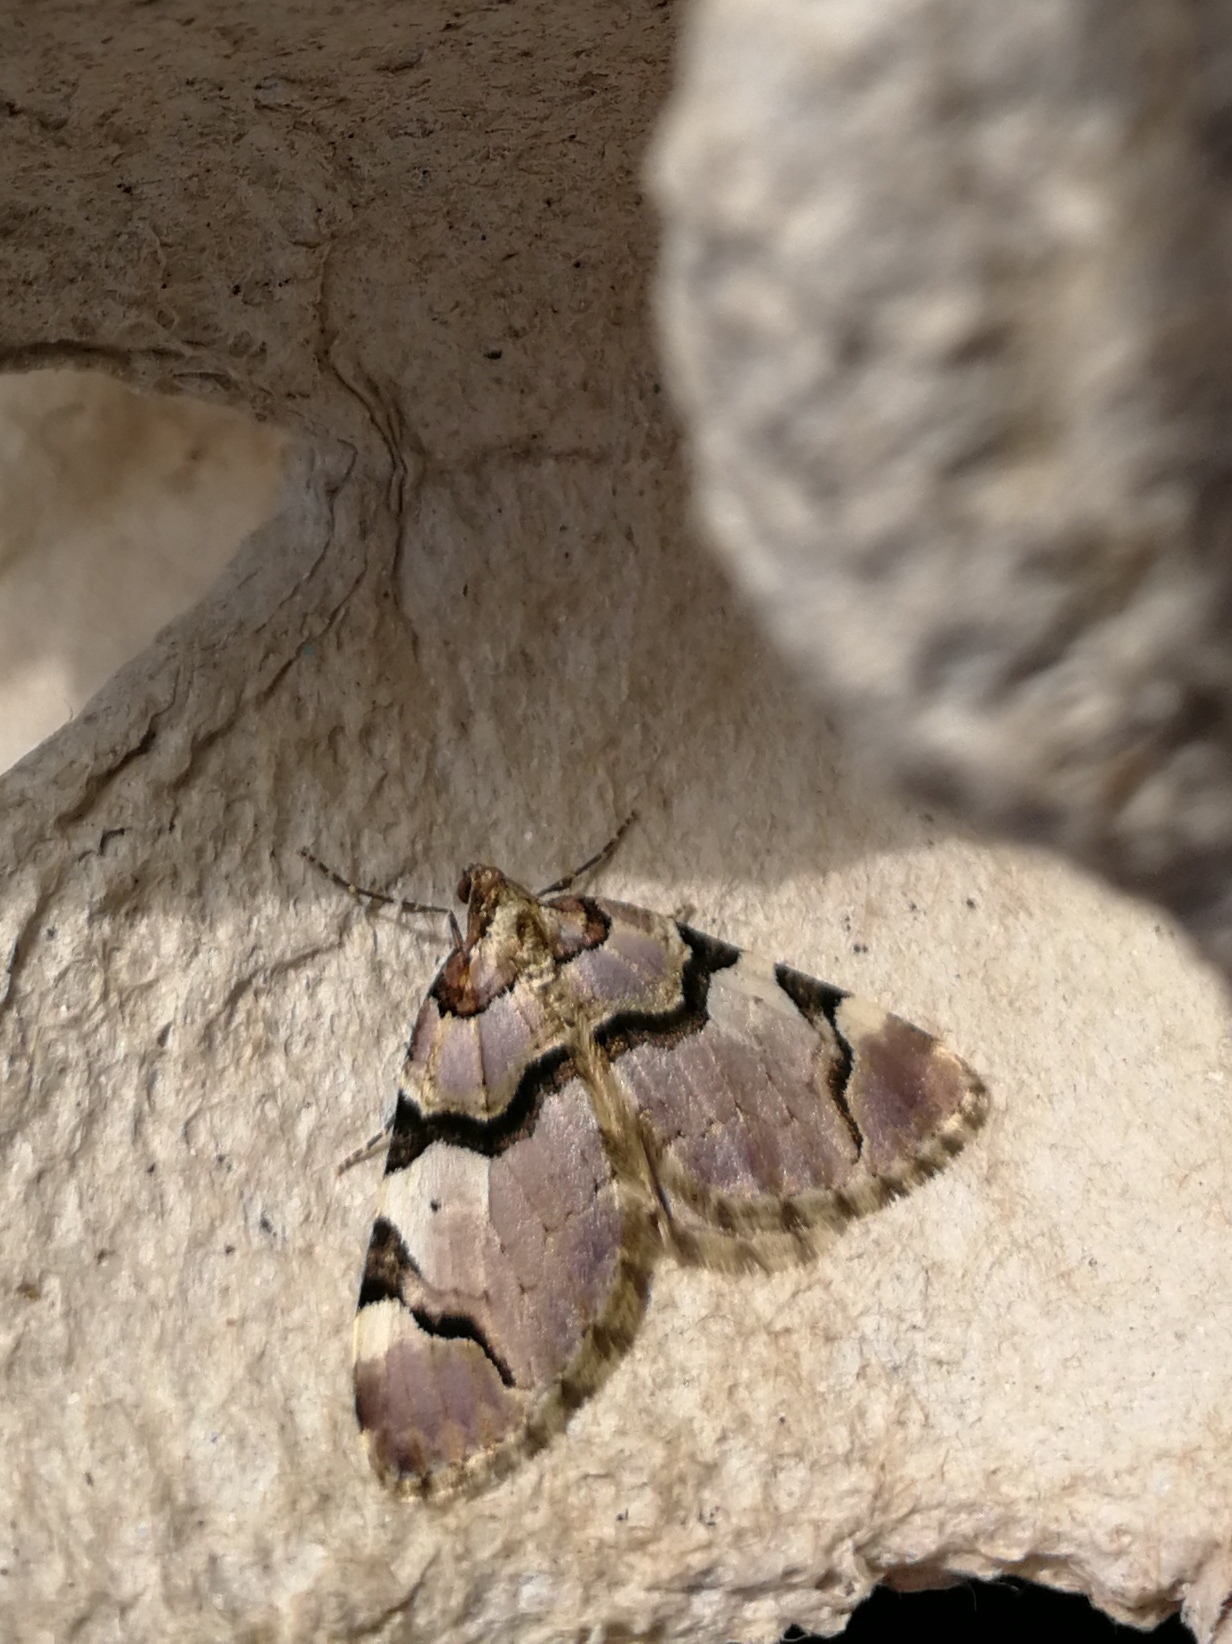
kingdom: Animalia
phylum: Arthropoda
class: Insecta
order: Lepidoptera
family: Geometridae
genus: Anticlea
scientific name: Anticlea derivata
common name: Streamer
